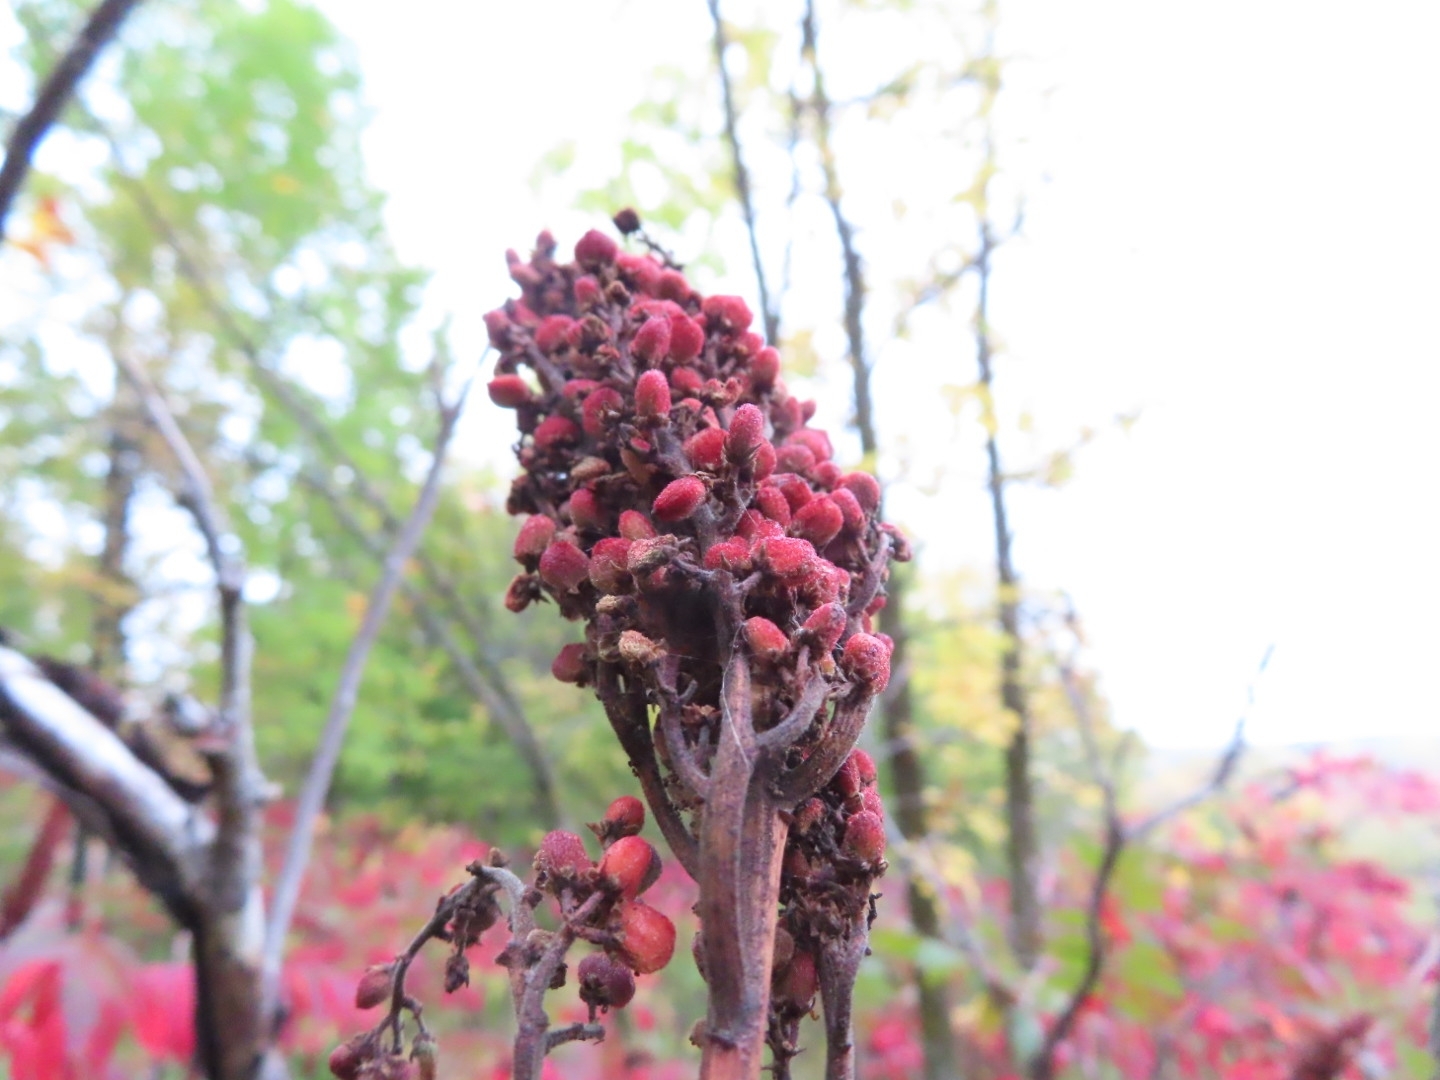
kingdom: Plantae
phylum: Tracheophyta
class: Magnoliopsida
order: Sapindales
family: Anacardiaceae
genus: Rhus
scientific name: Rhus glabra
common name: Scarlet sumac
